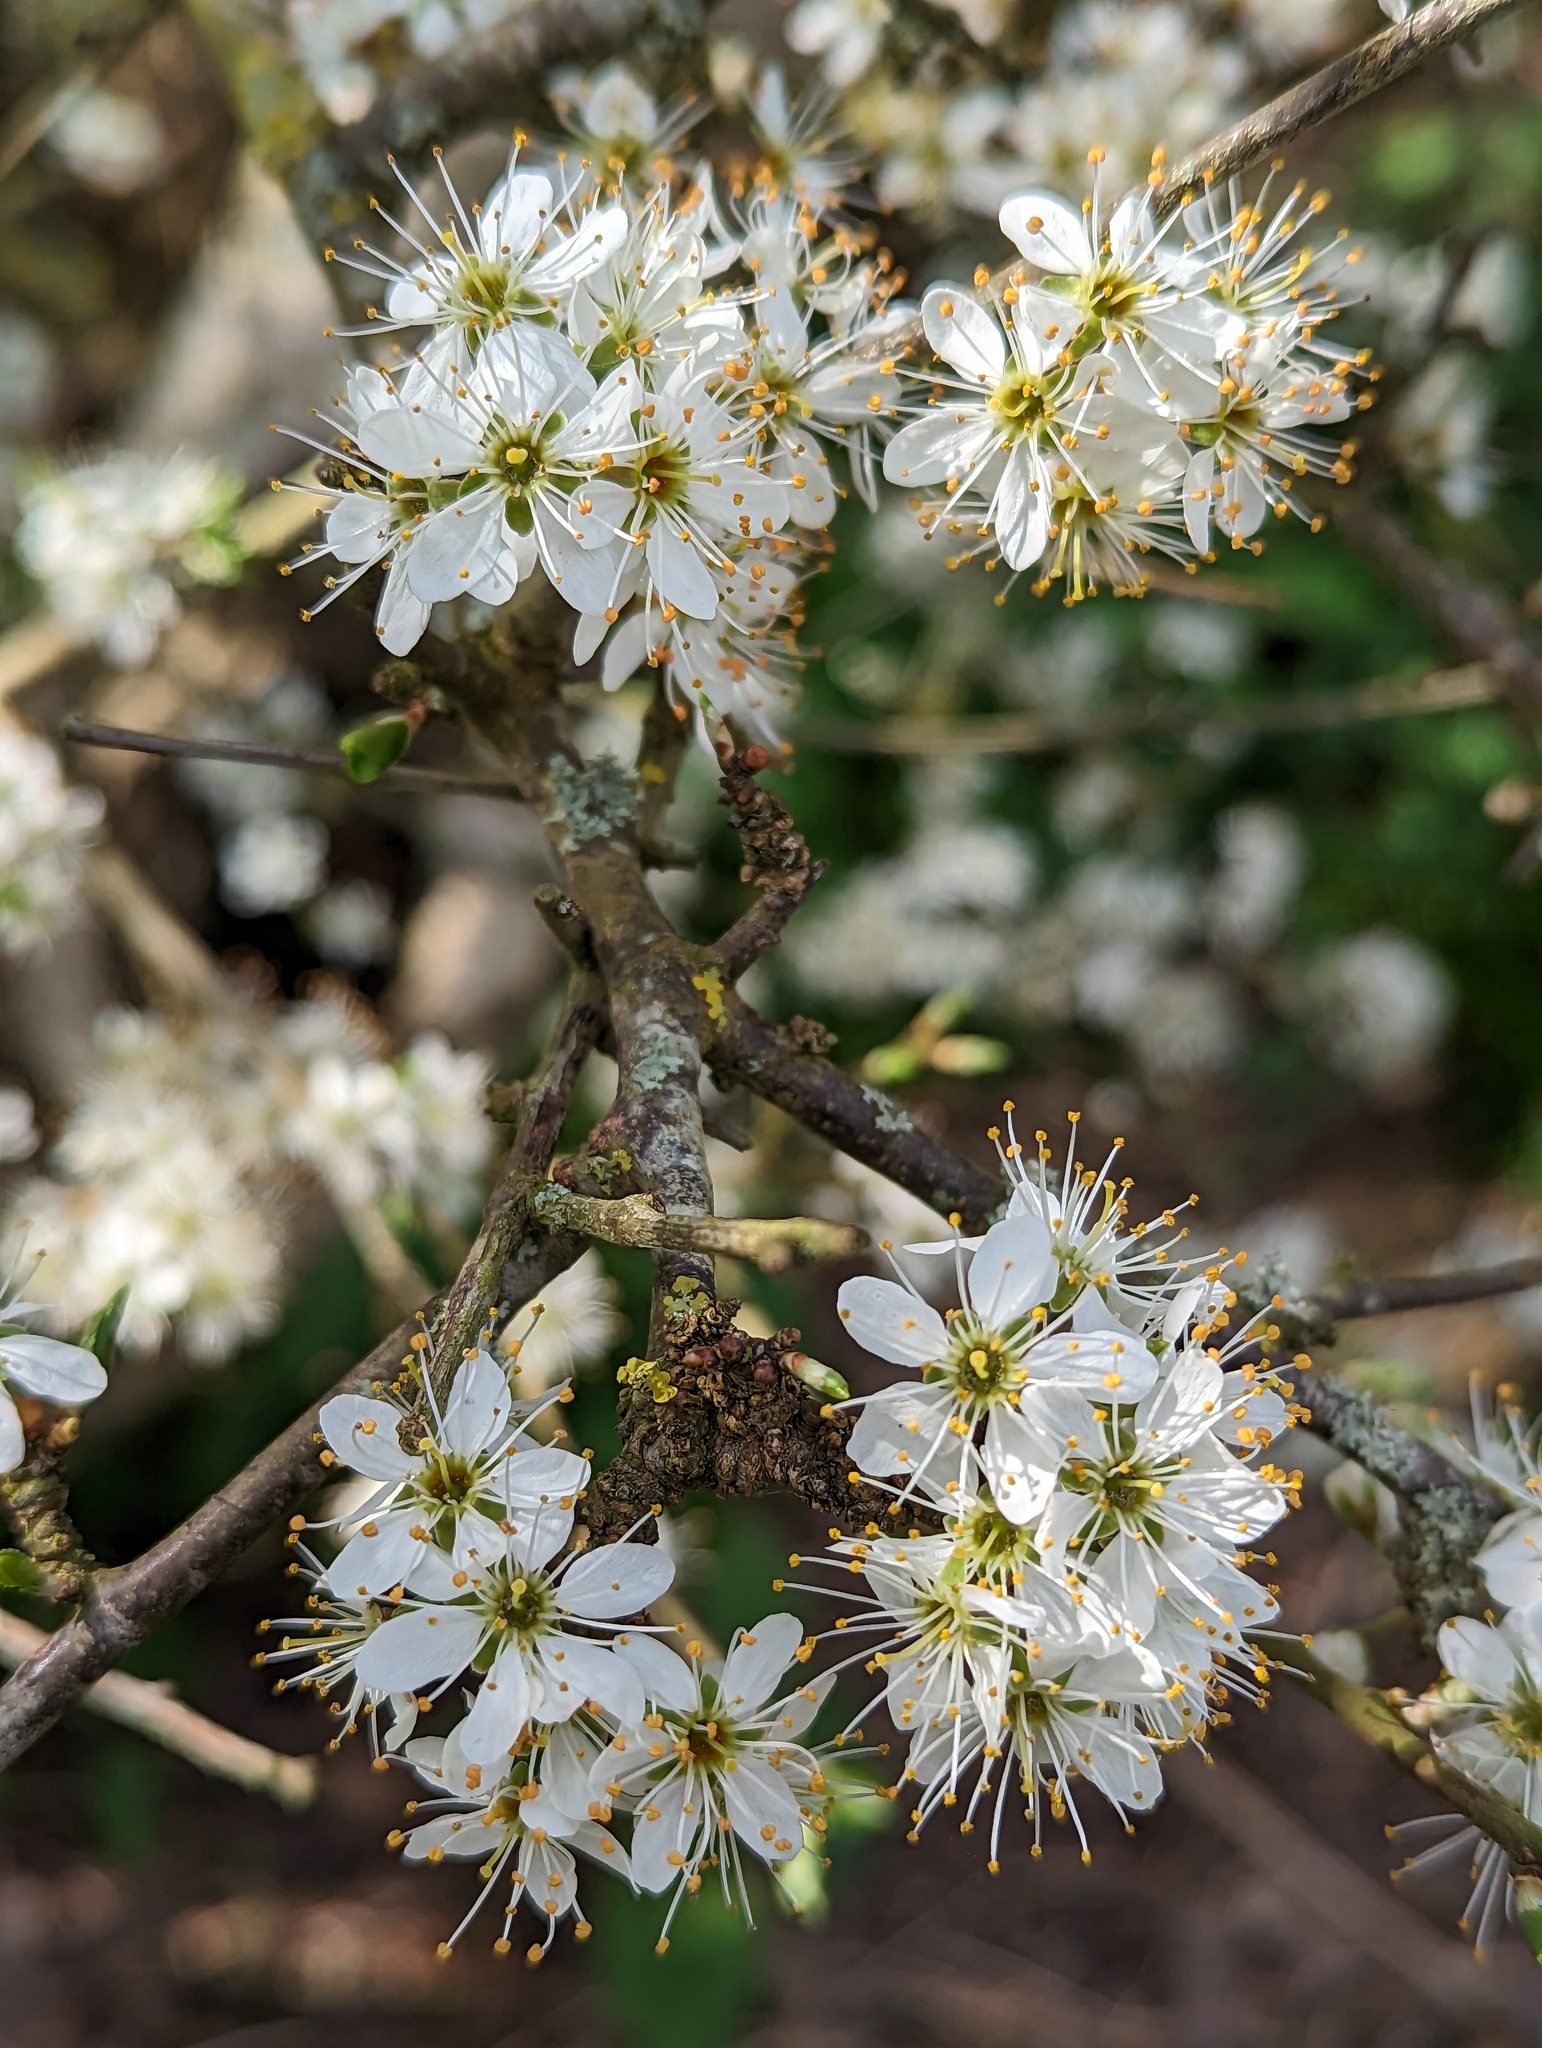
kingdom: Plantae
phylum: Tracheophyta
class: Magnoliopsida
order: Rosales
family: Rosaceae
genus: Prunus
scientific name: Prunus spinosa
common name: Blackthorn
